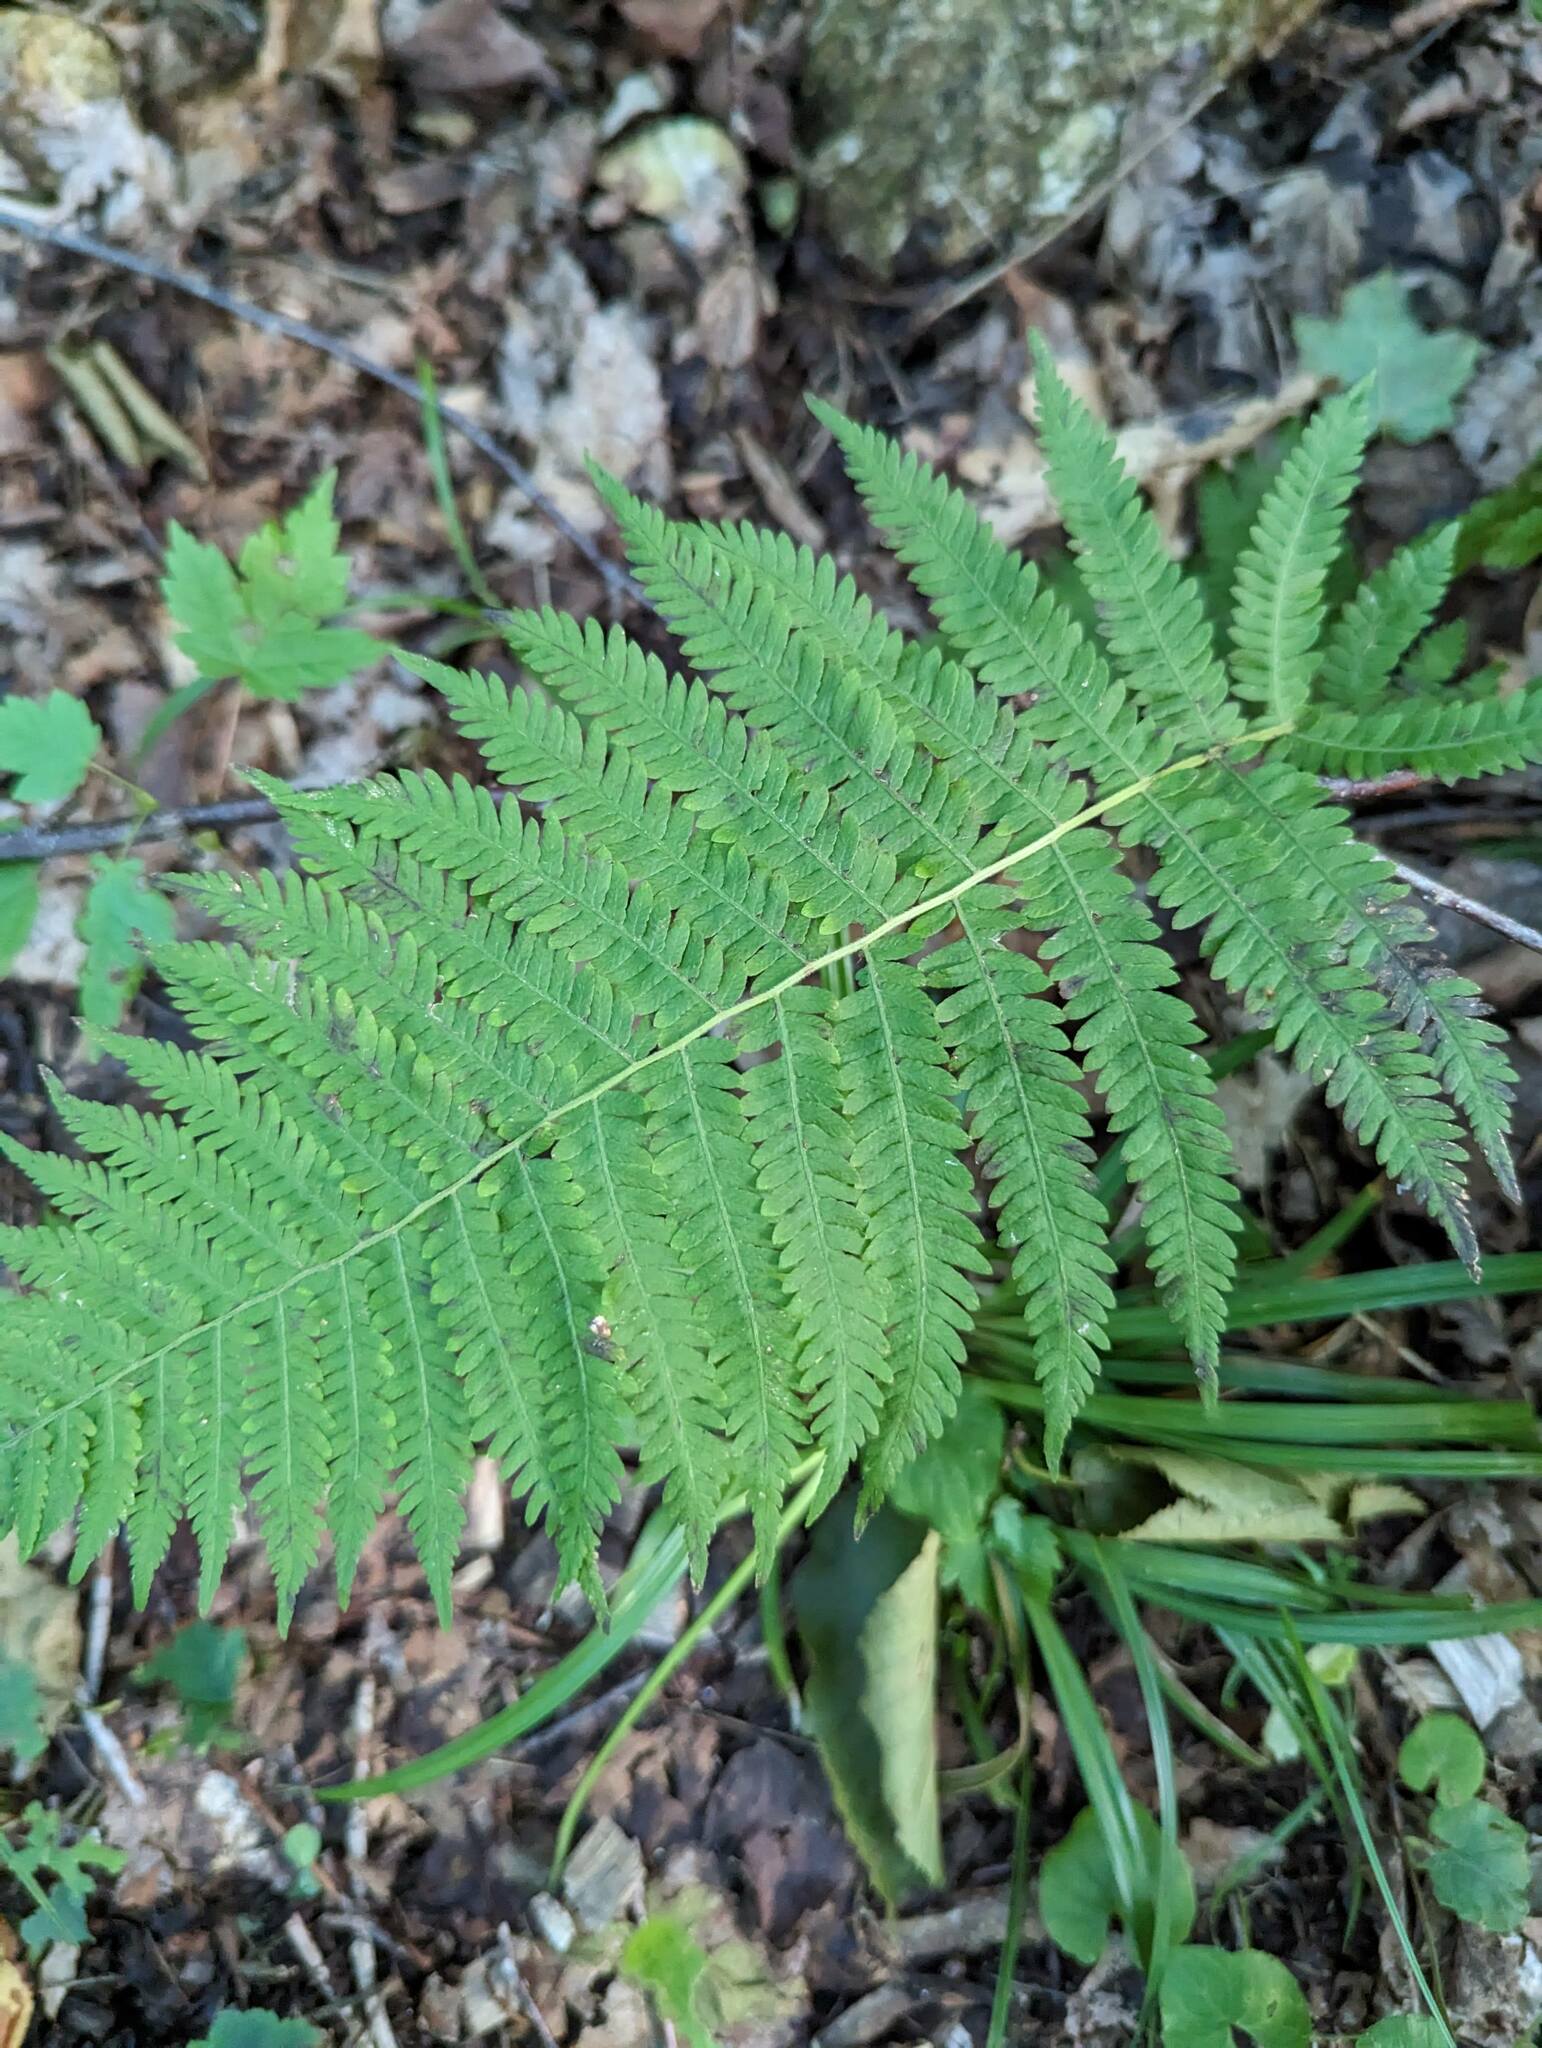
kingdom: Plantae
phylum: Tracheophyta
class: Polypodiopsida
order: Polypodiales
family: Thelypteridaceae
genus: Amauropelta
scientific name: Amauropelta noveboracensis
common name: New york fern
